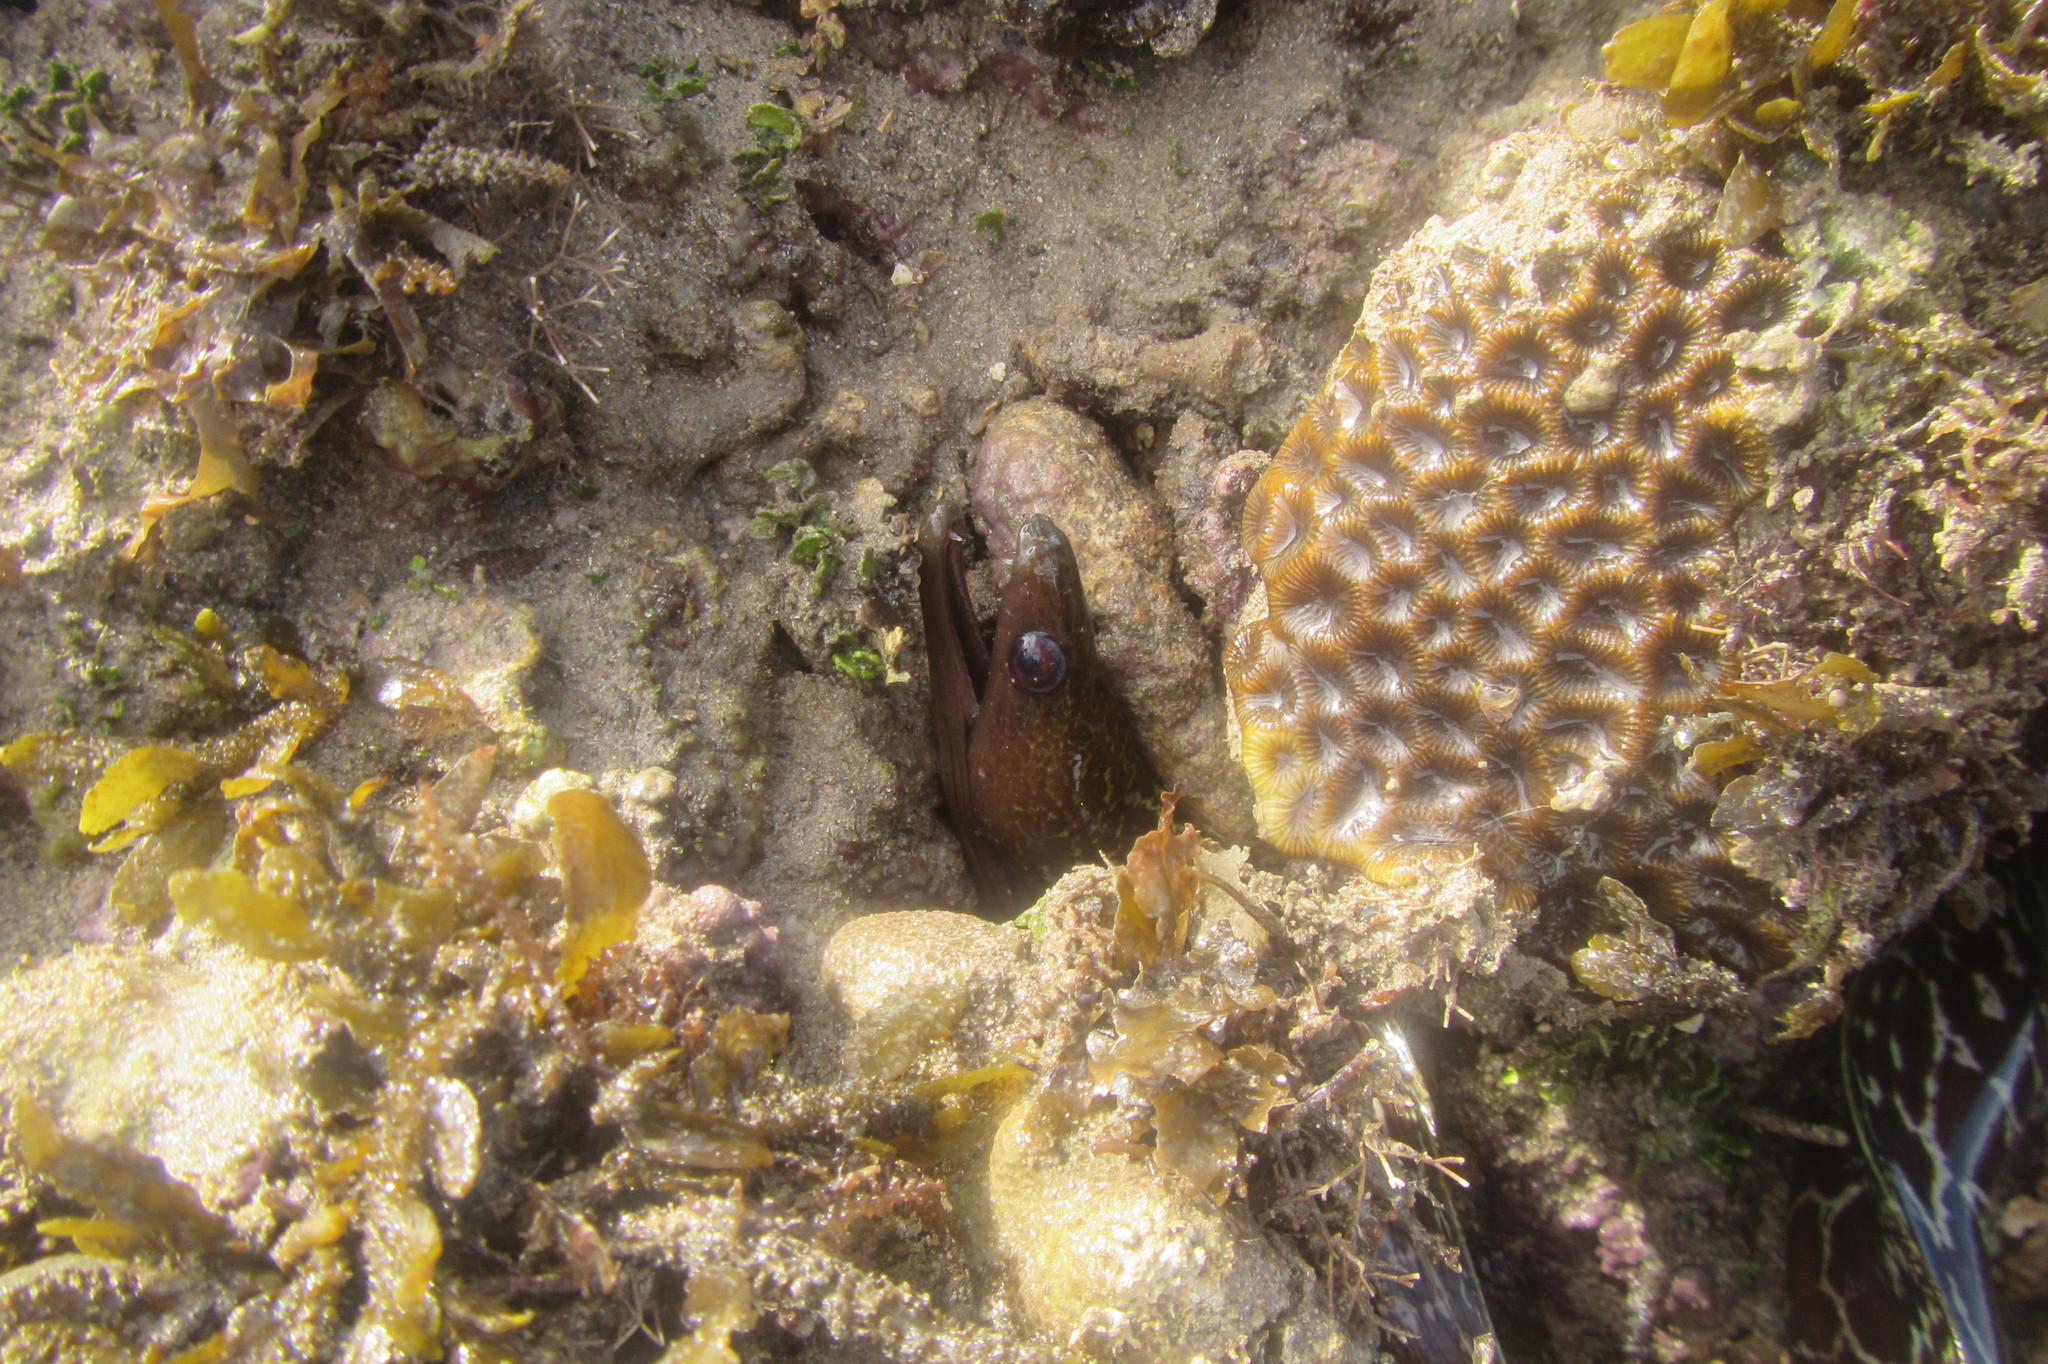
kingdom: Animalia
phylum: Chordata
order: Anguilliformes
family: Muraenidae
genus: Gymnothorax
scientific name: Gymnothorax undulatus
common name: Leopard moray
